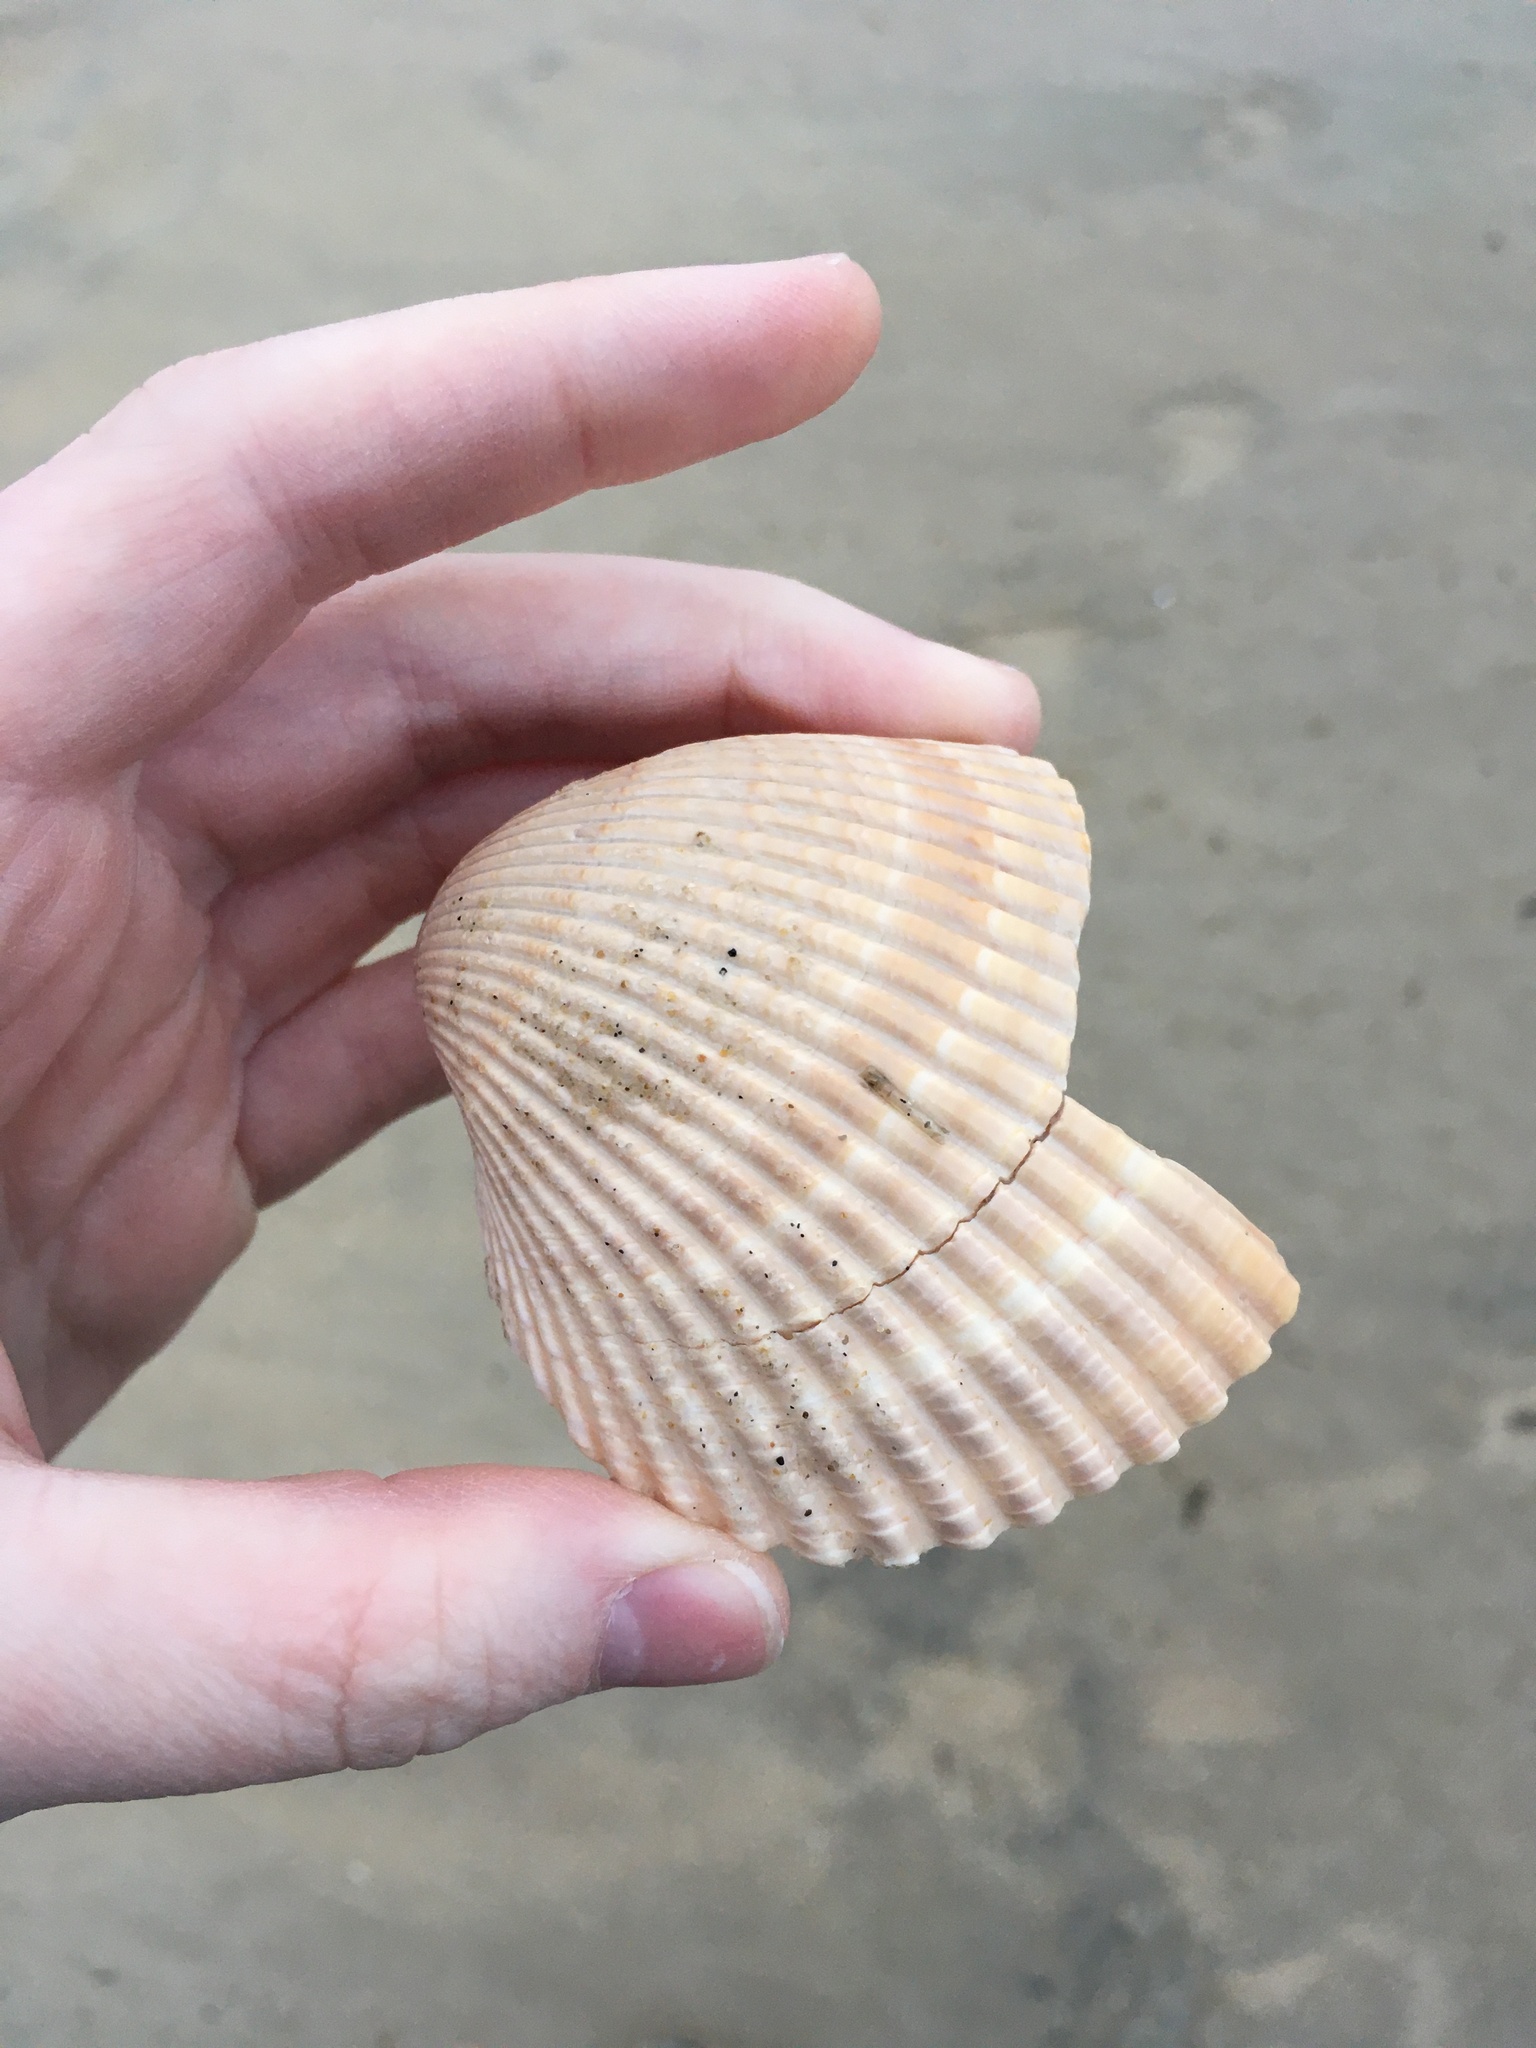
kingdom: Animalia
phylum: Mollusca
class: Bivalvia
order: Cardiida
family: Cardiidae
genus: Dinocardium
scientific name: Dinocardium robustum
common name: Atlantic giant cockle
